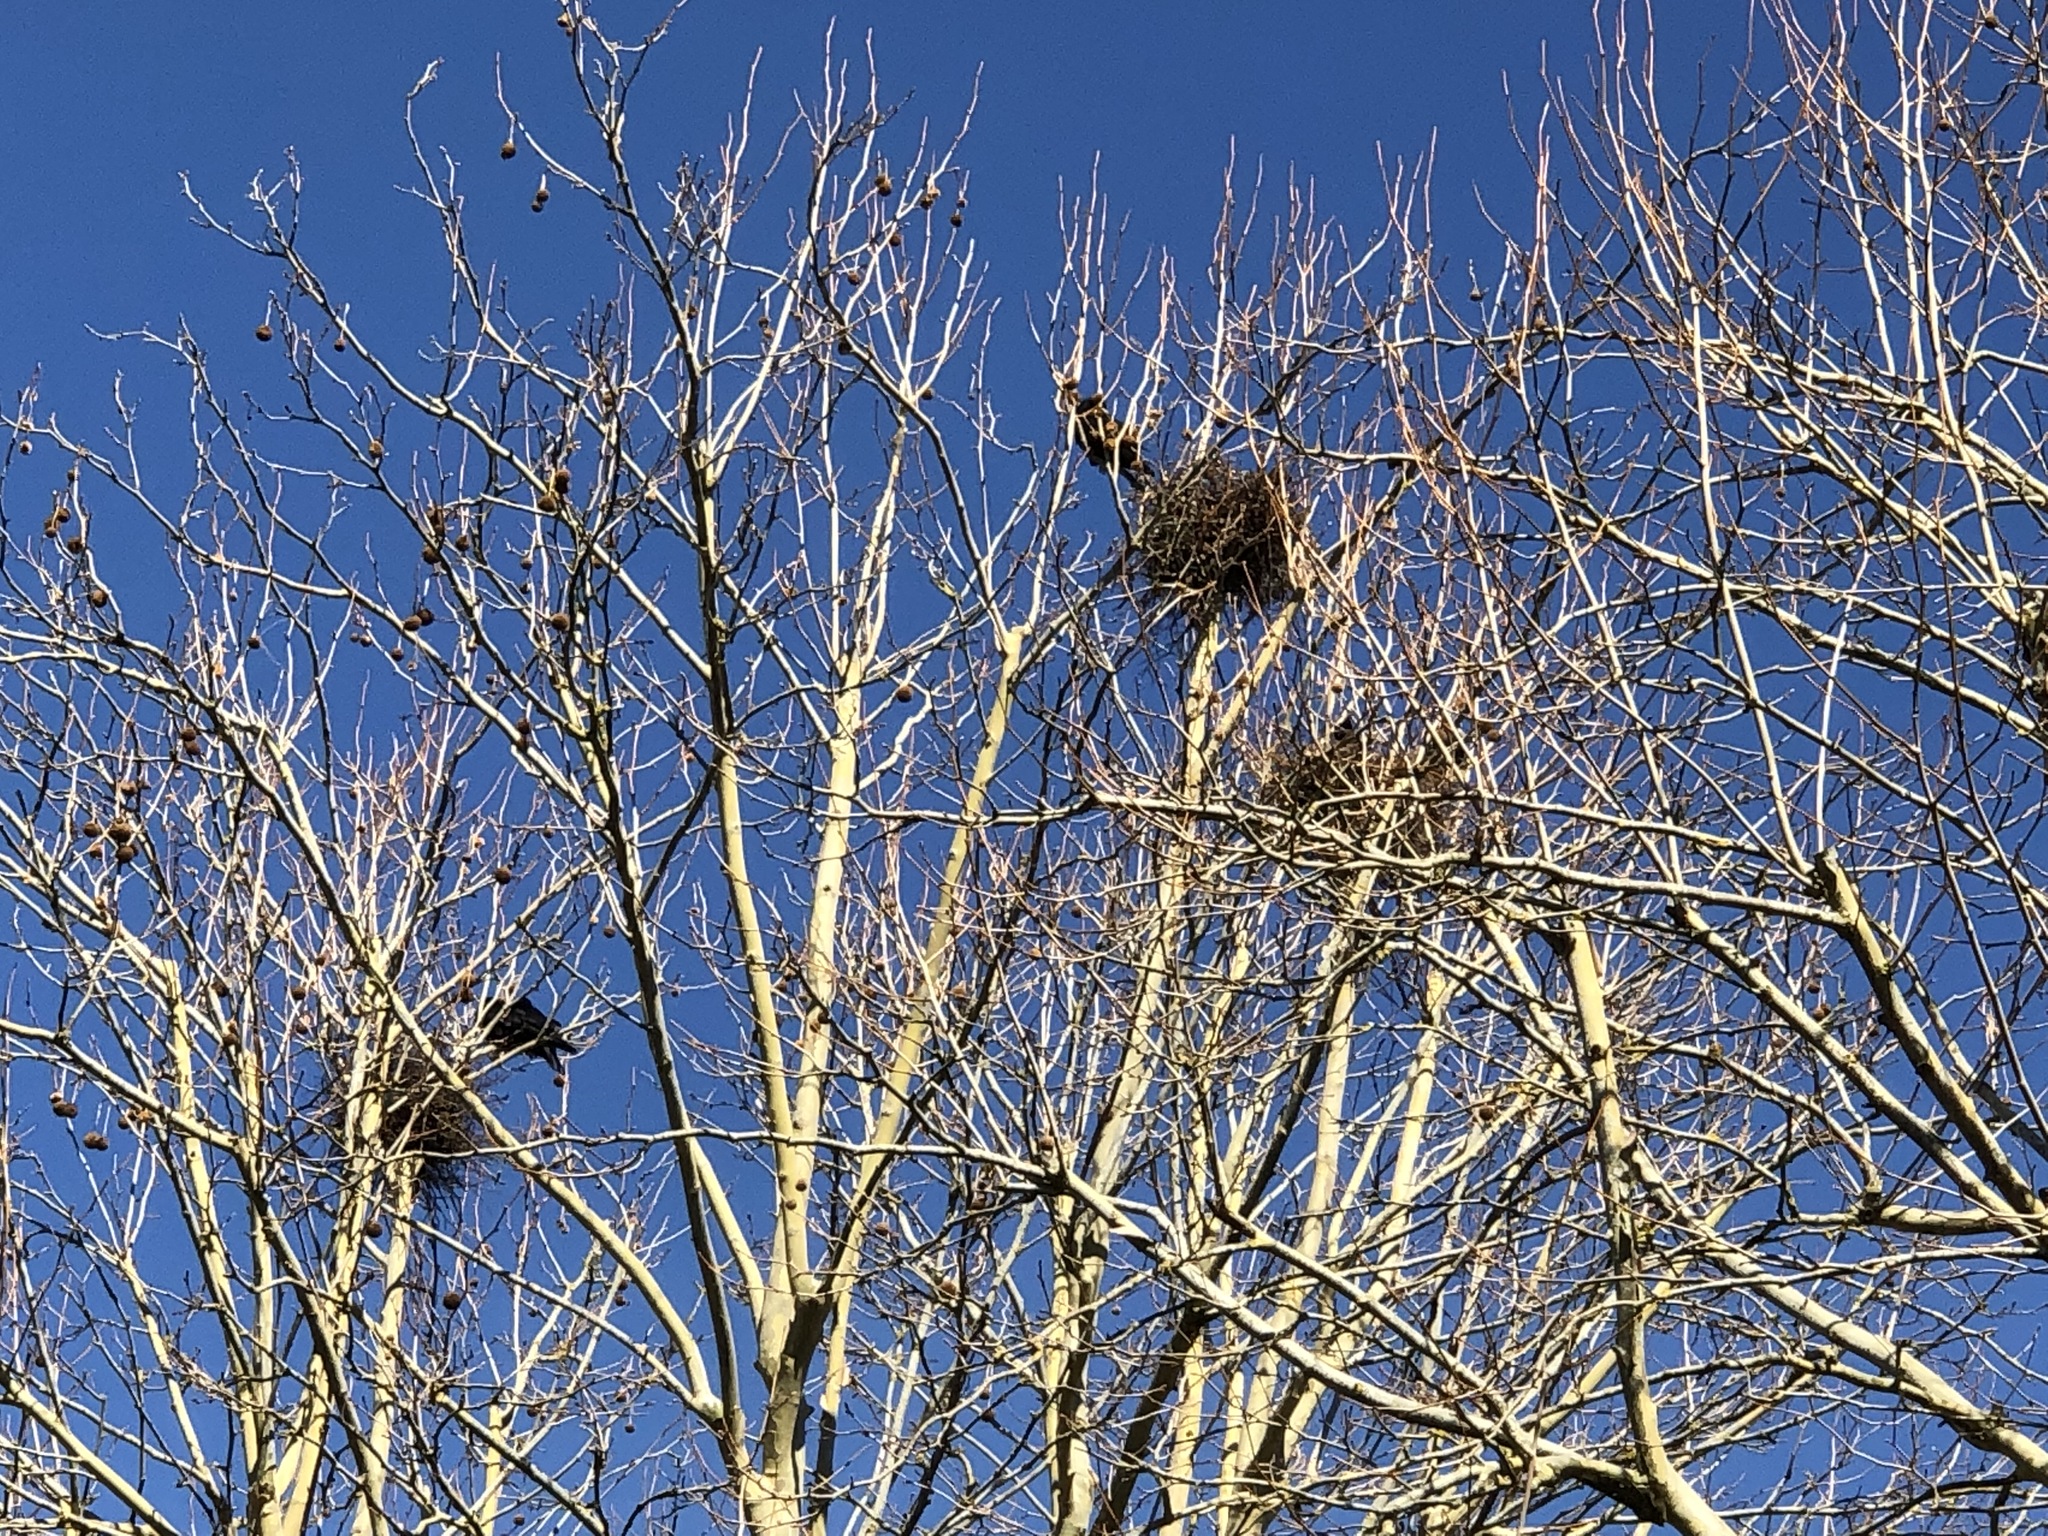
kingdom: Animalia
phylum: Chordata
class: Aves
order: Passeriformes
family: Corvidae
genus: Corvus
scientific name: Corvus frugilegus
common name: Rook
